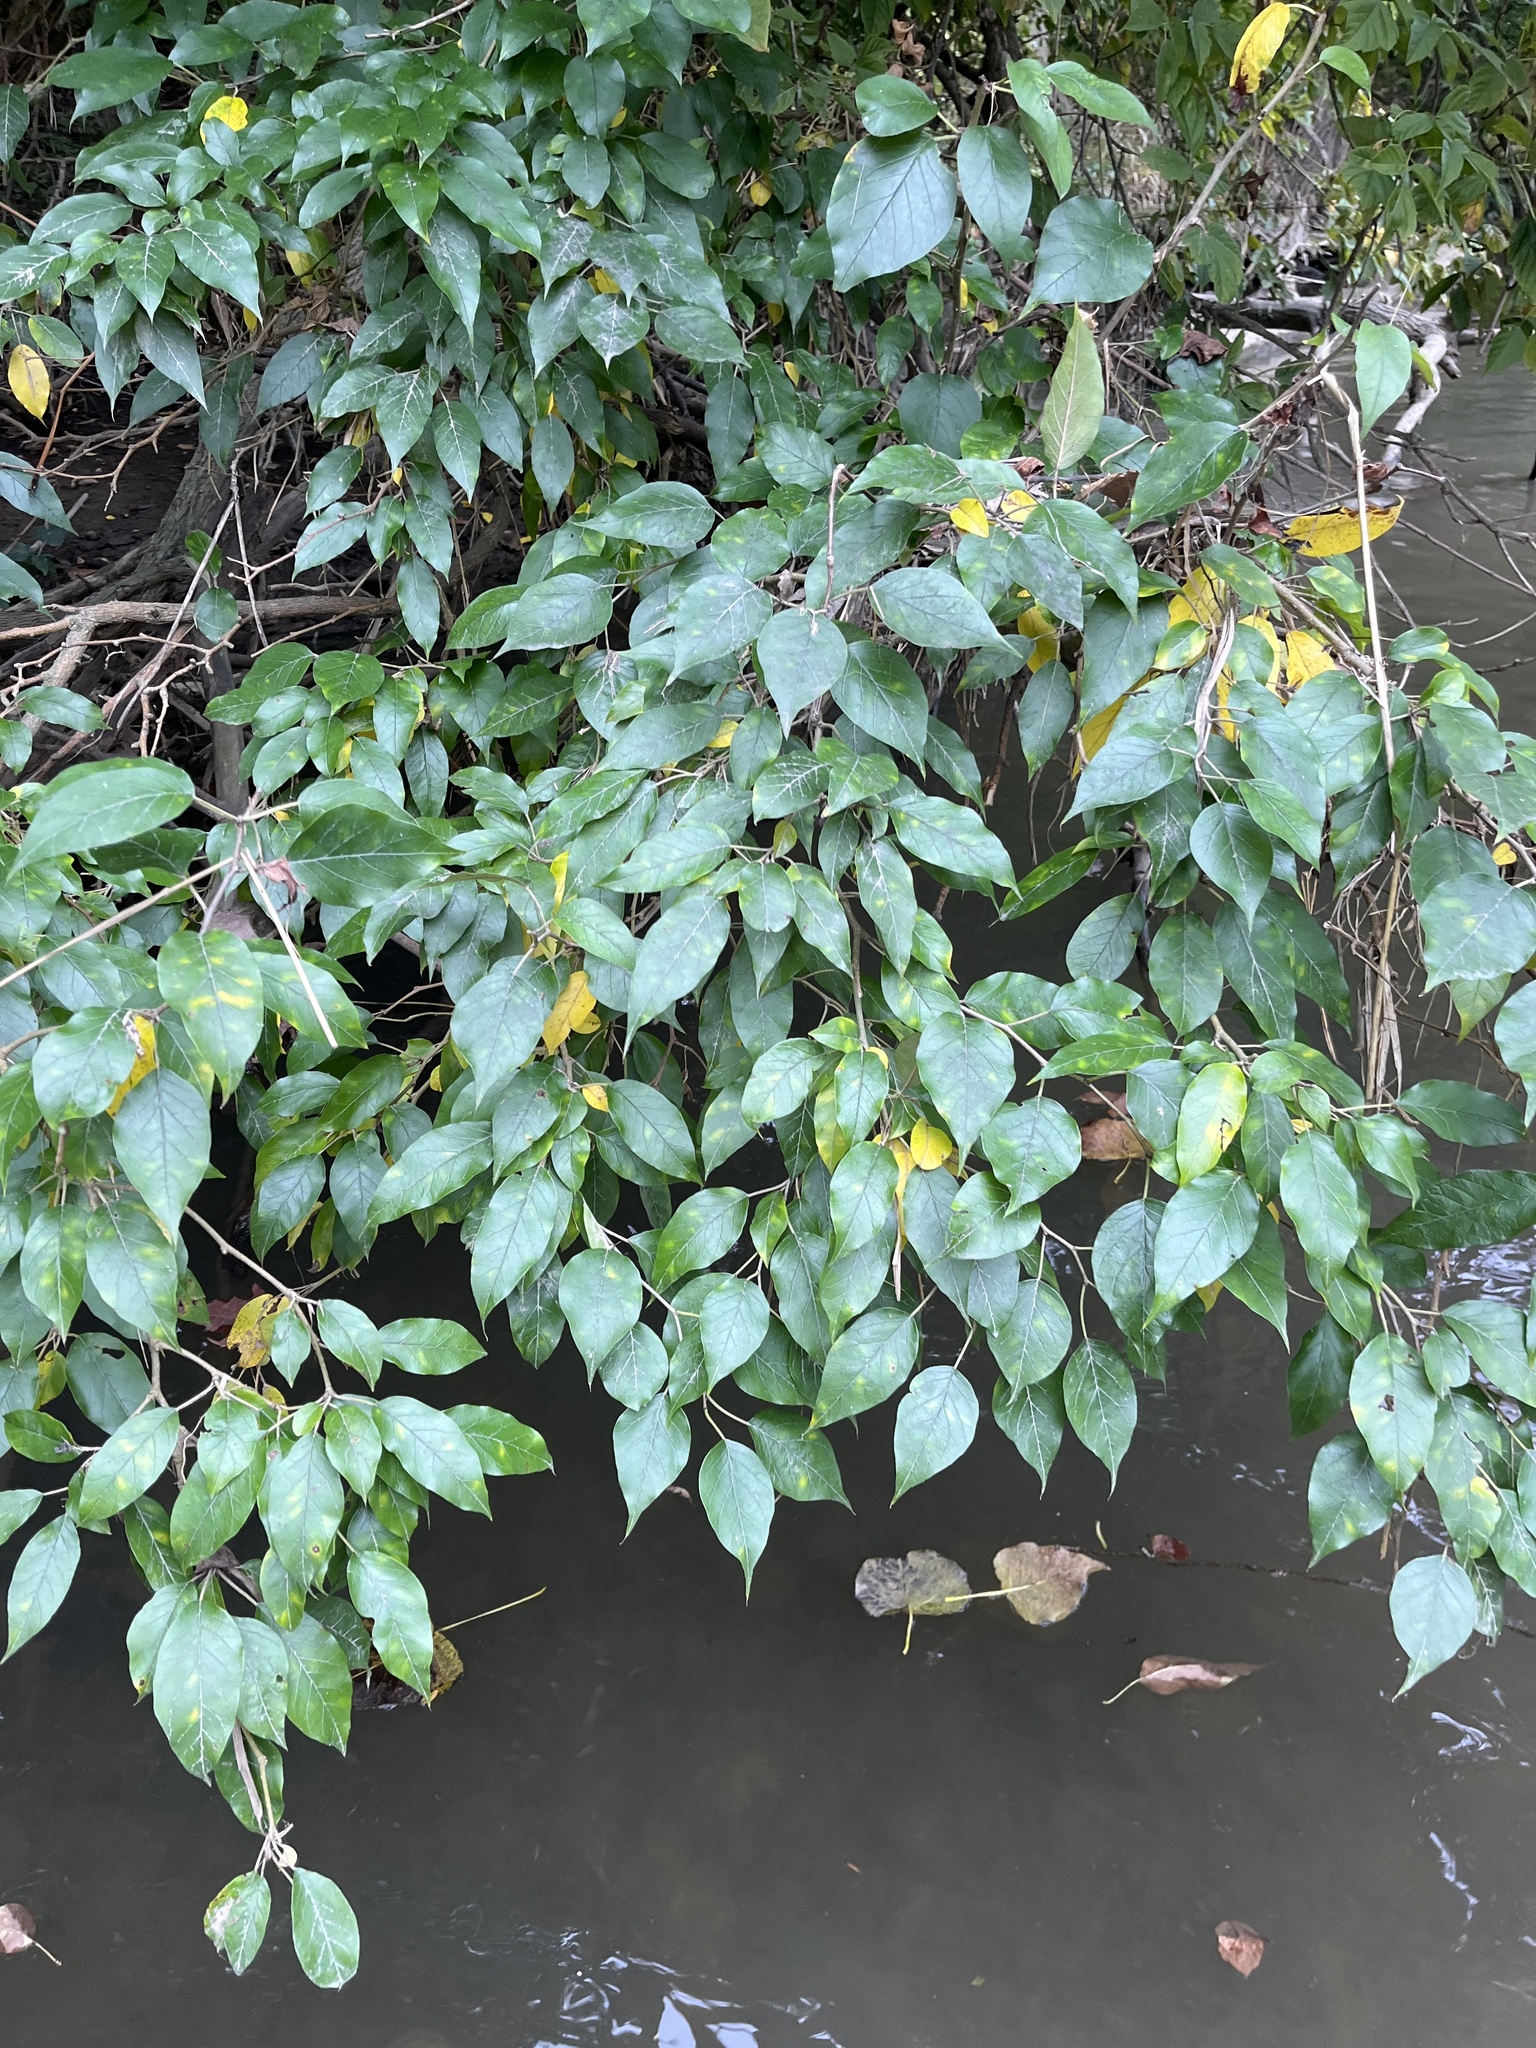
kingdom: Plantae
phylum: Tracheophyta
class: Magnoliopsida
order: Rosales
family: Moraceae
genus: Maclura
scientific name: Maclura pomifera
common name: Osage-orange
